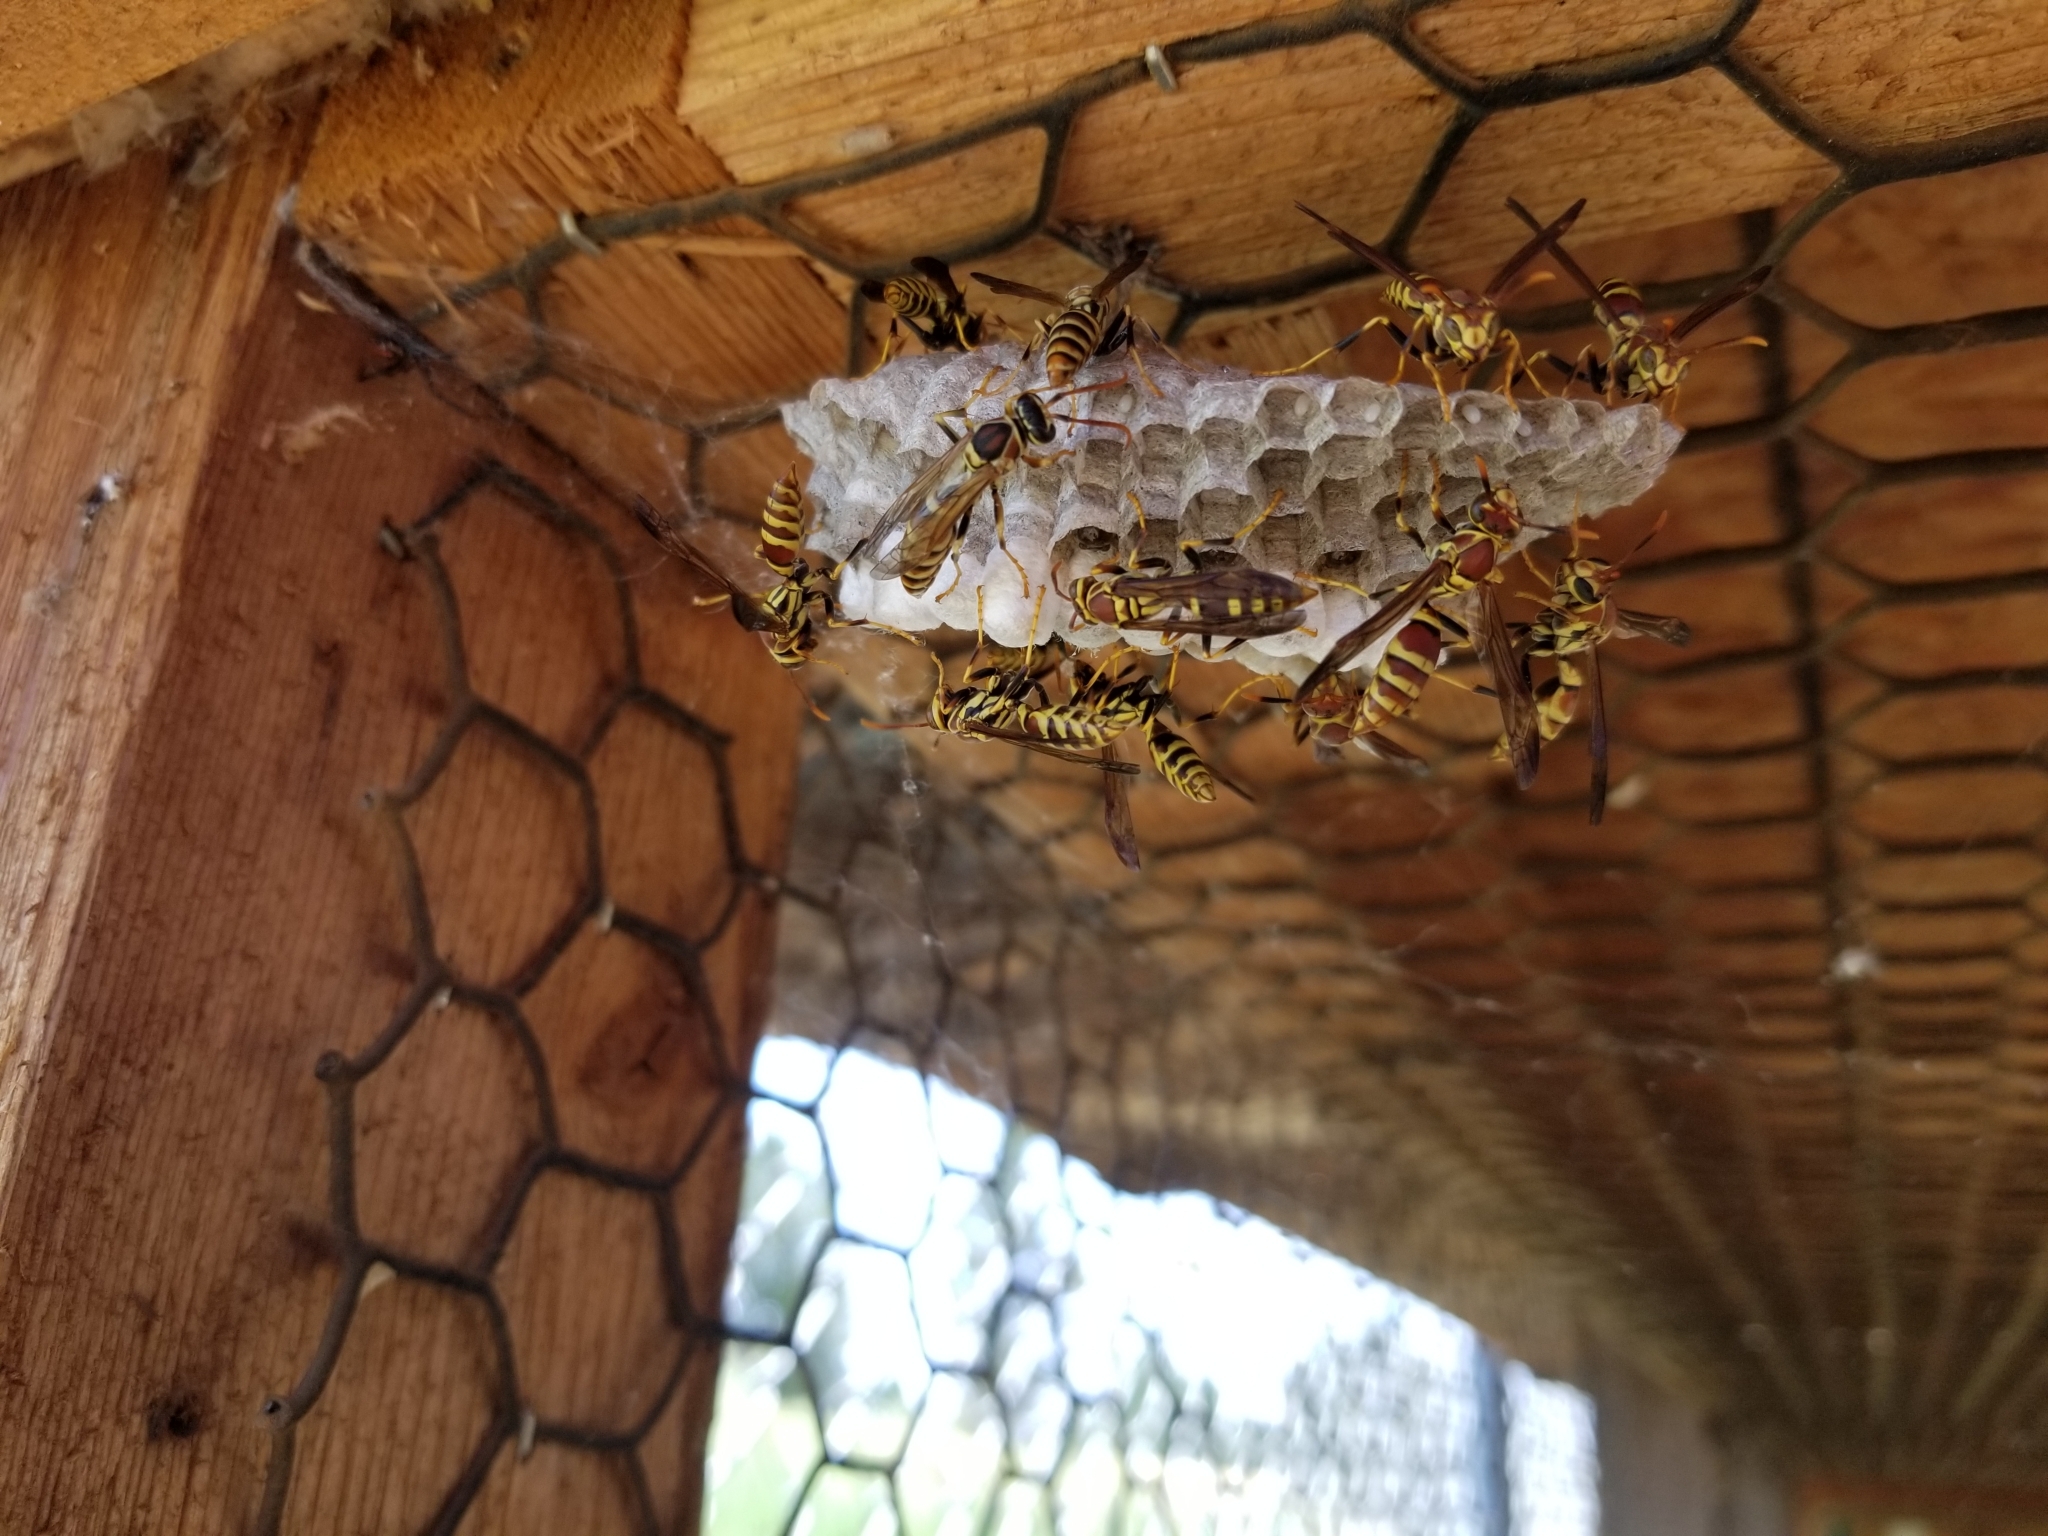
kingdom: Animalia
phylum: Arthropoda
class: Insecta
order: Hymenoptera
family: Eumenidae
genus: Polistes
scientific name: Polistes exclamans
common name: Paper wasp
